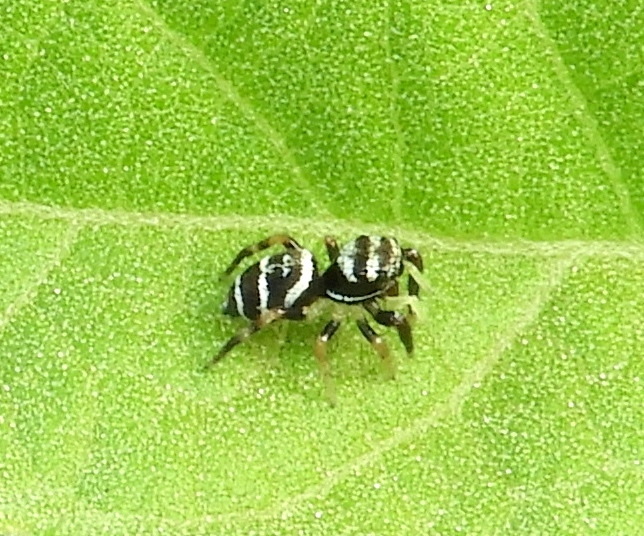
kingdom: Animalia
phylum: Arthropoda
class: Arachnida
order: Araneae
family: Salticidae
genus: Sassacus
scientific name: Sassacus
